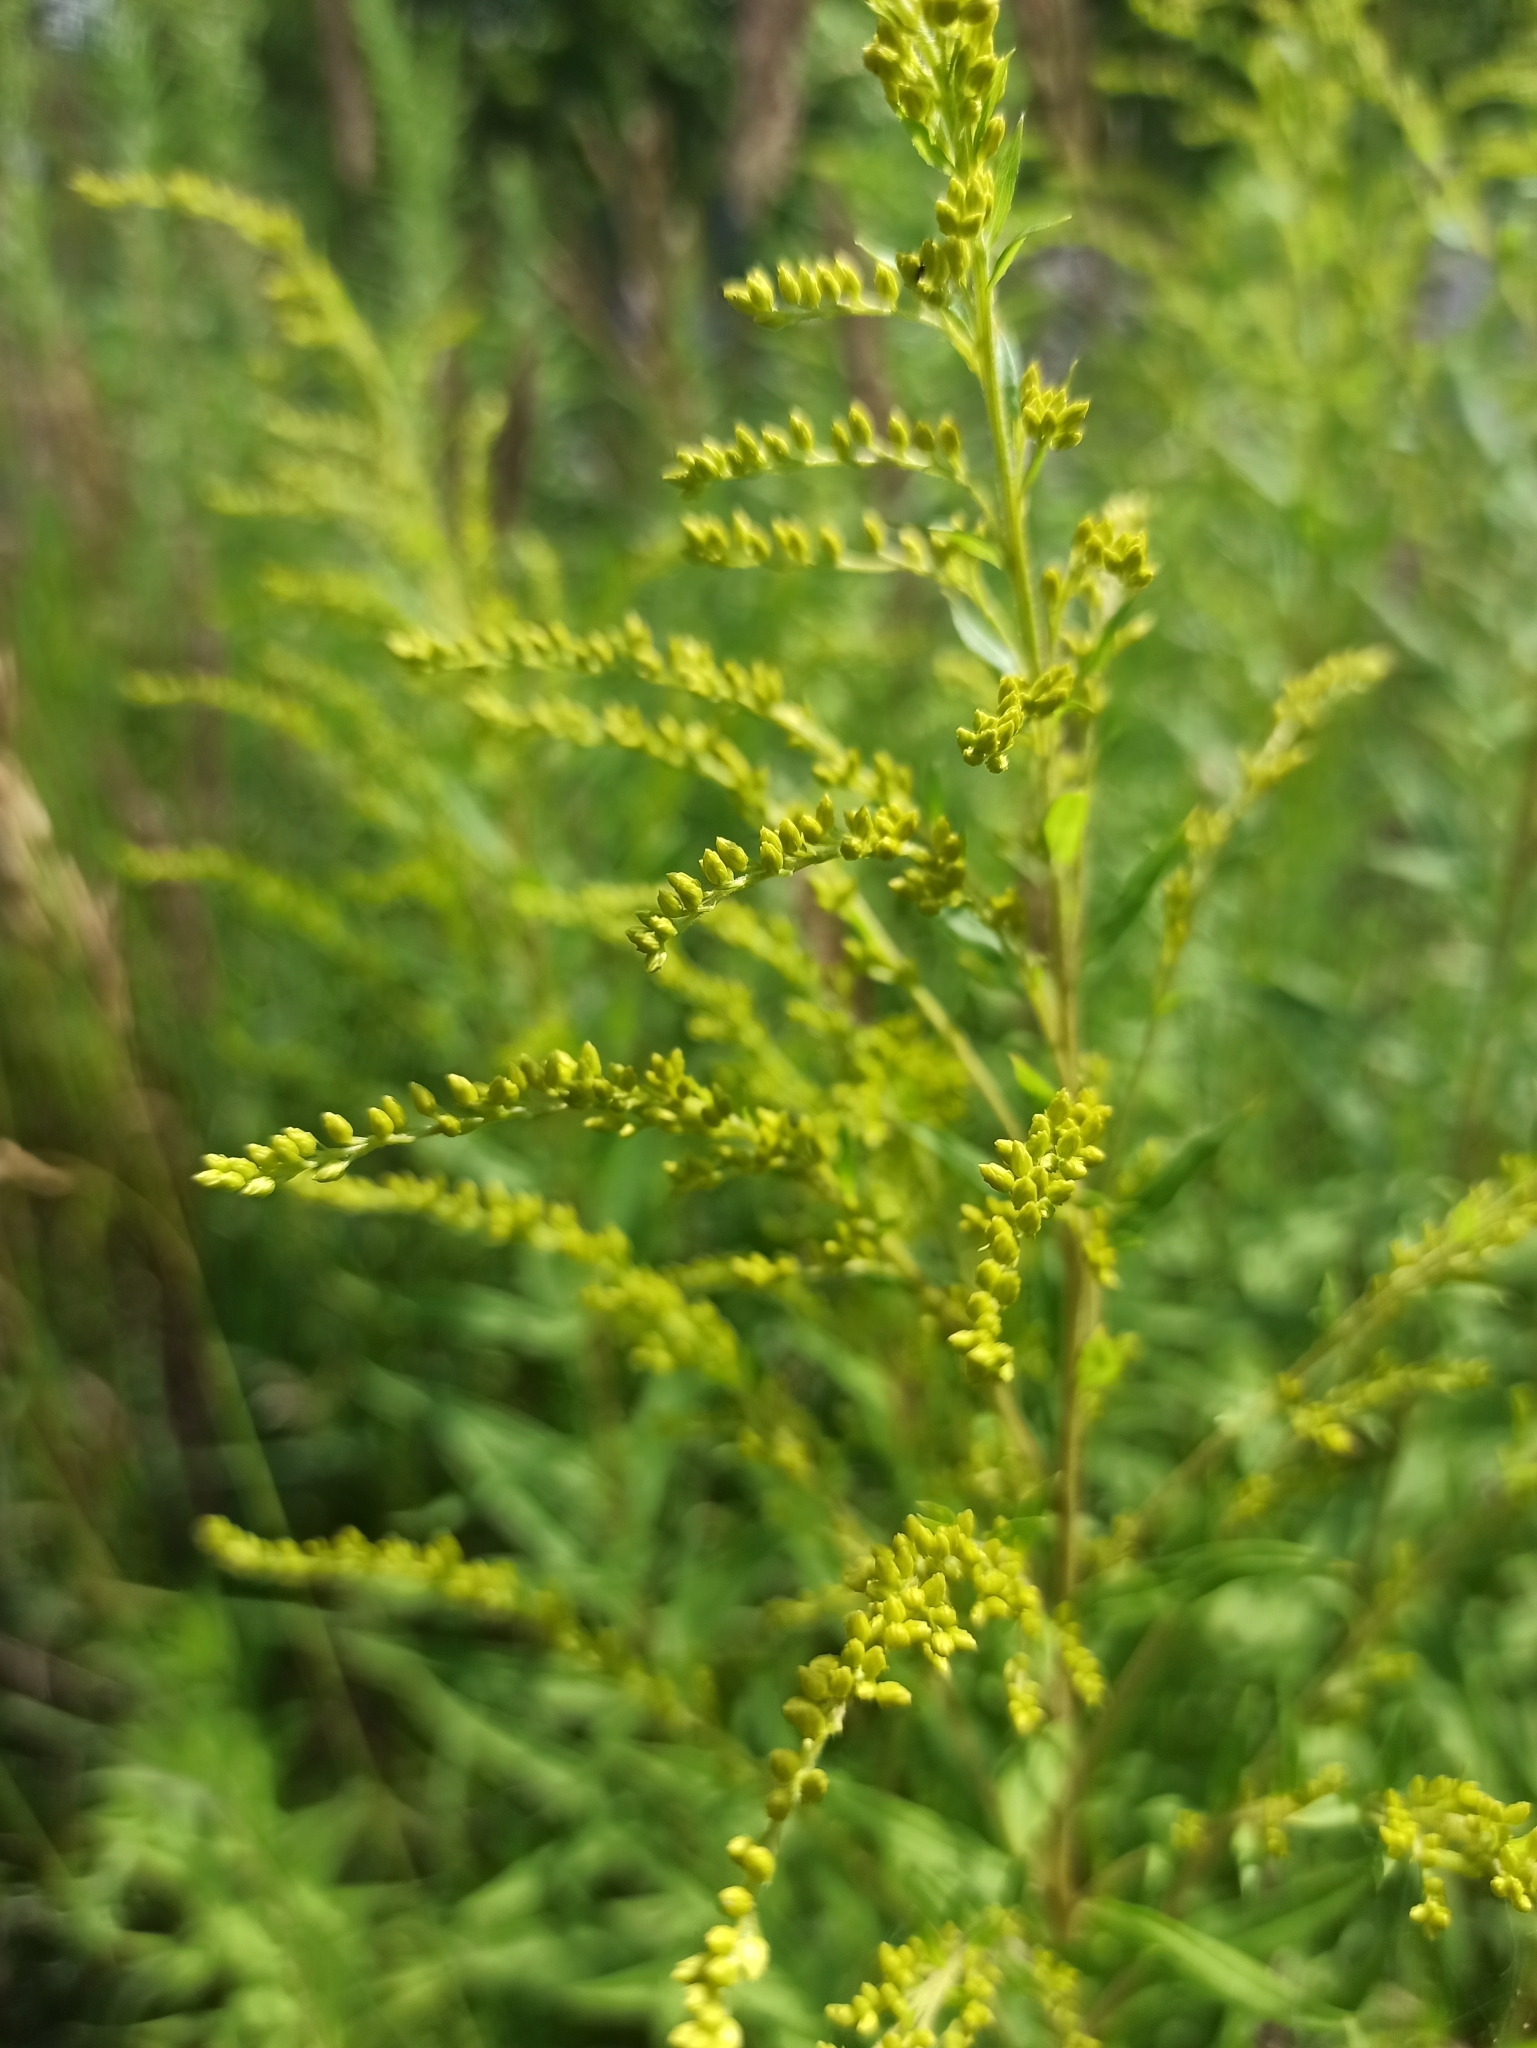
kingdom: Plantae
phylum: Tracheophyta
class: Magnoliopsida
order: Asterales
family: Asteraceae
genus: Solidago
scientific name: Solidago canadensis
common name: Canada goldenrod
